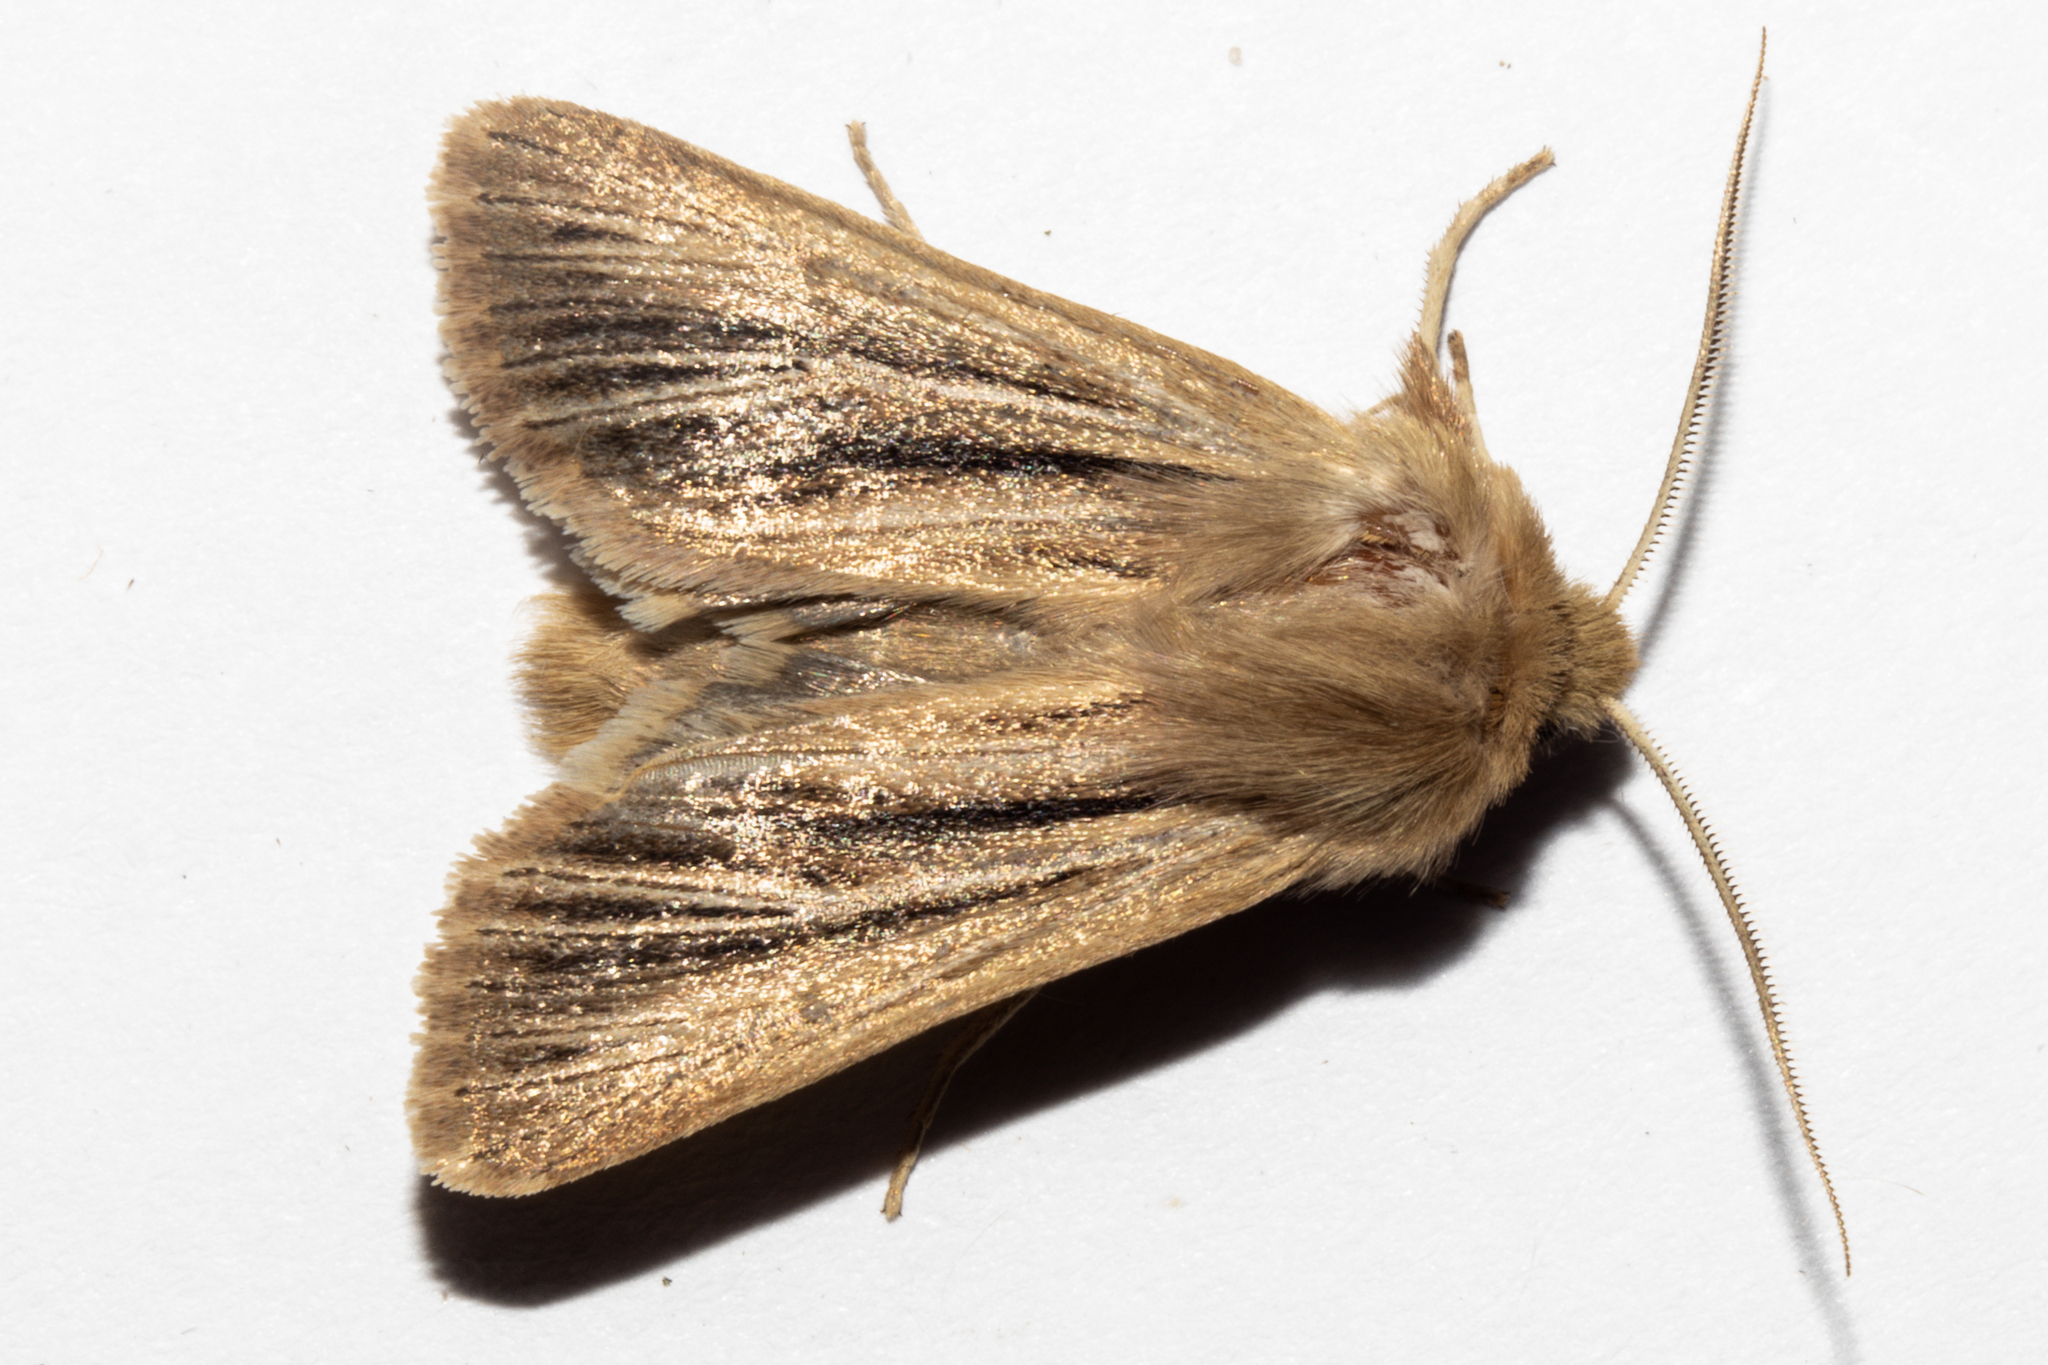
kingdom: Animalia
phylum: Arthropoda
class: Insecta
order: Lepidoptera
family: Noctuidae
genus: Ichneutica
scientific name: Ichneutica
